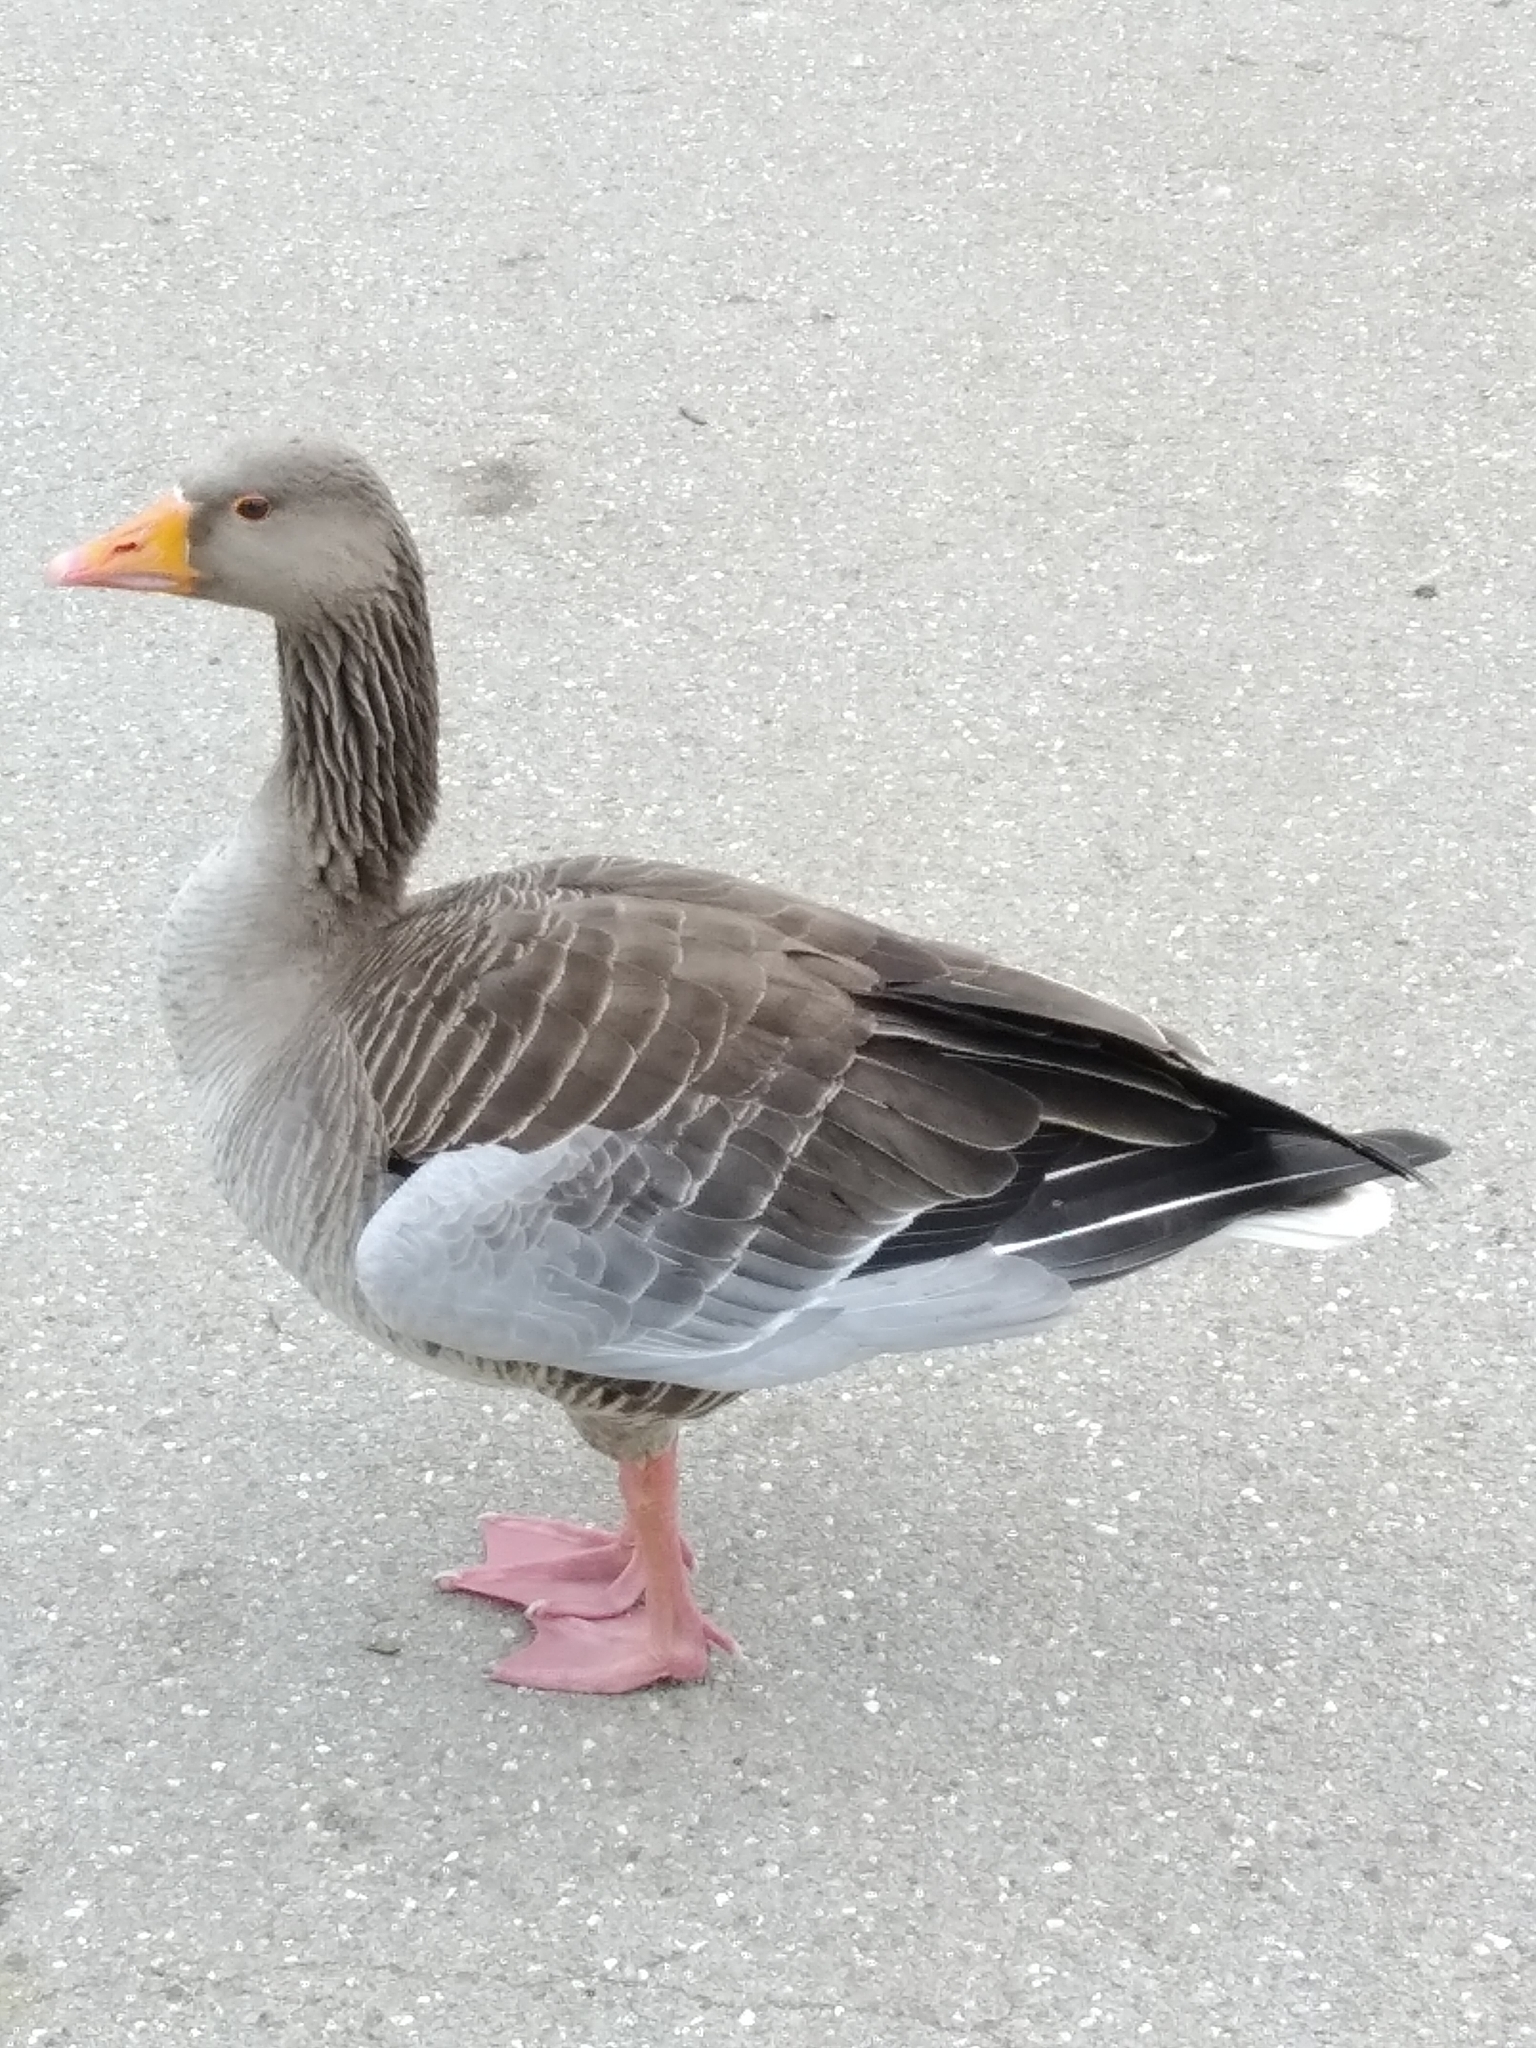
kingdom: Animalia
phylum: Chordata
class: Aves
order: Anseriformes
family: Anatidae
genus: Anser
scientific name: Anser anser
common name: Greylag goose
